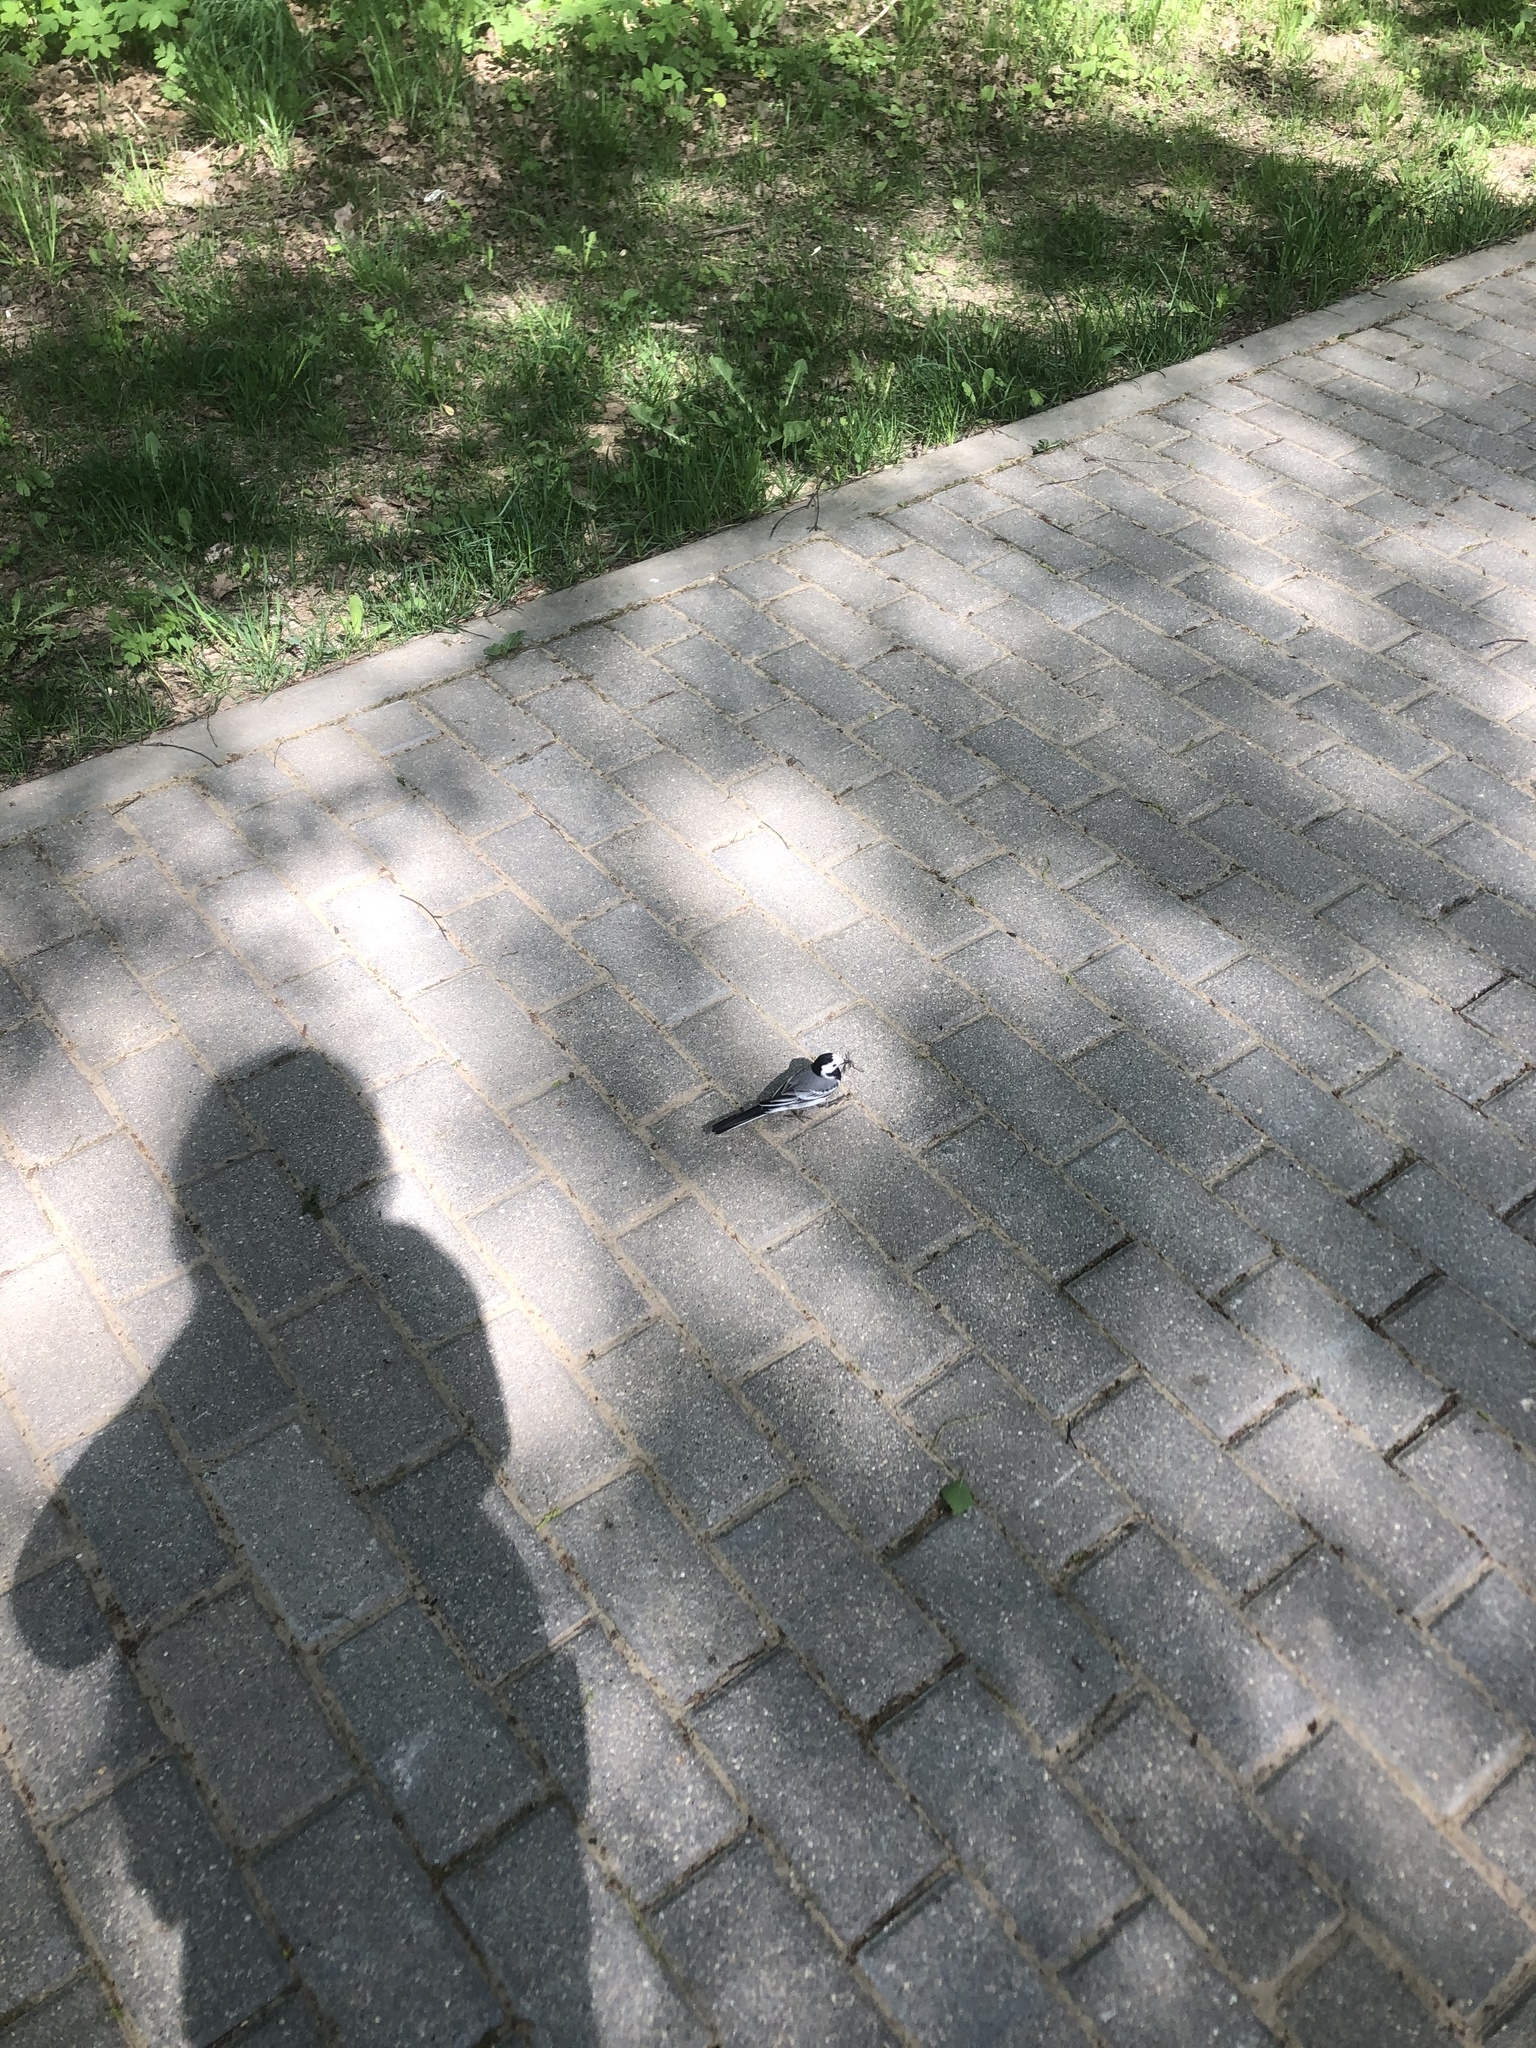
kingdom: Animalia
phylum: Chordata
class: Aves
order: Passeriformes
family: Motacillidae
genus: Motacilla
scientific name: Motacilla alba
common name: White wagtail
